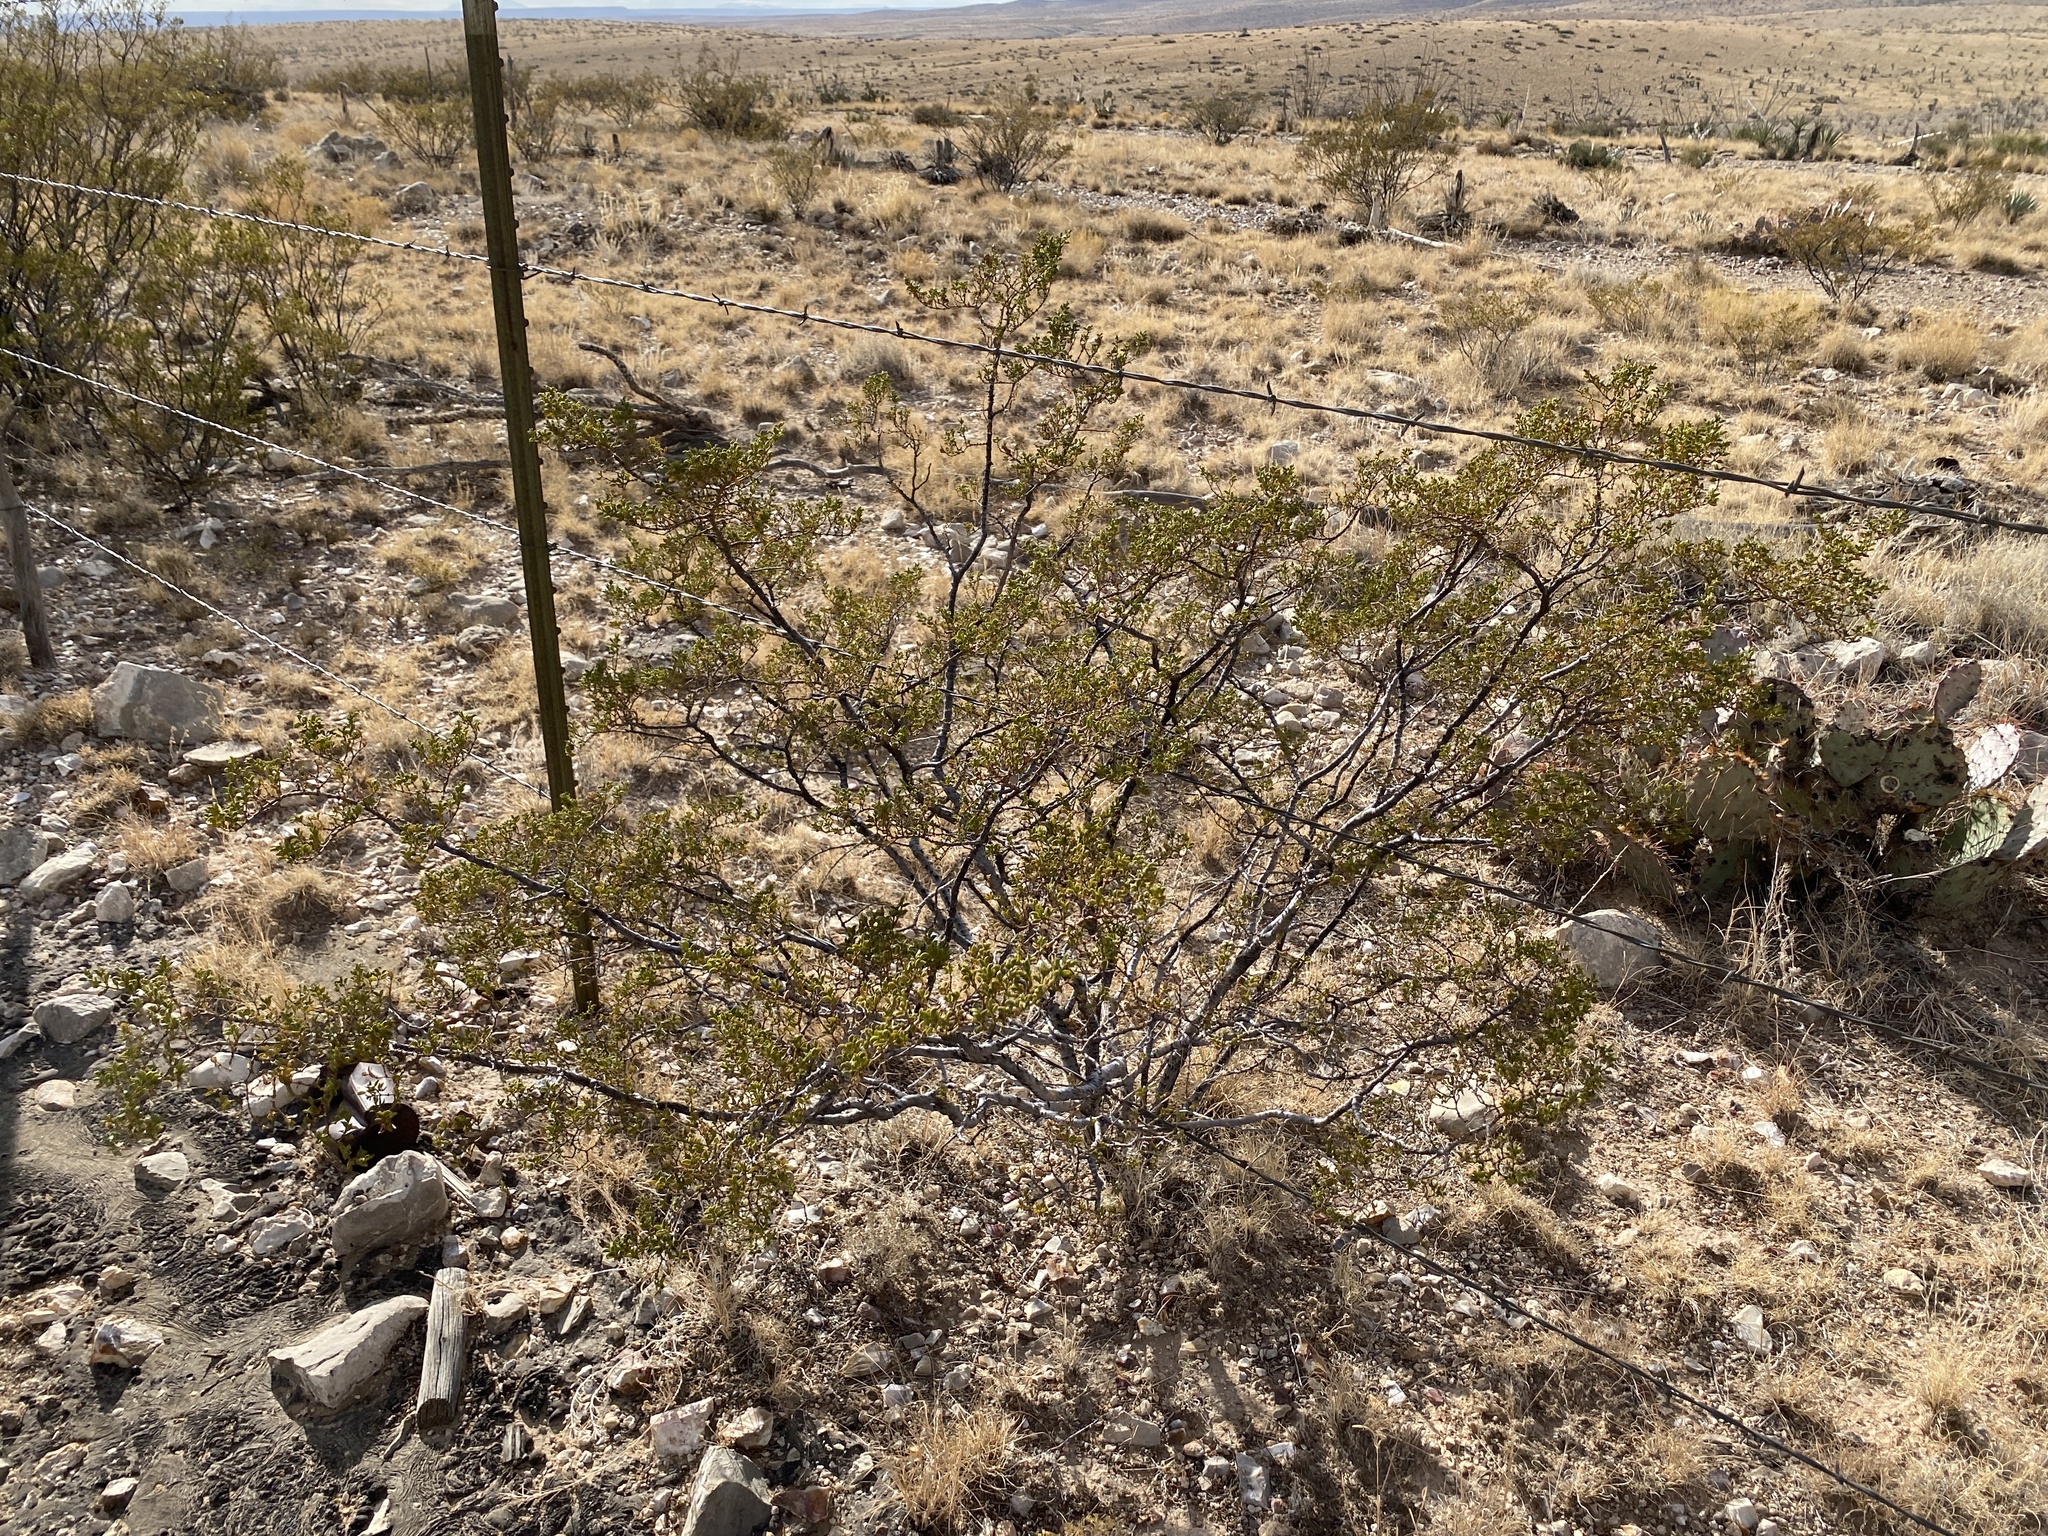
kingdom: Plantae
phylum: Tracheophyta
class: Magnoliopsida
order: Zygophyllales
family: Zygophyllaceae
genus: Larrea
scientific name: Larrea tridentata
